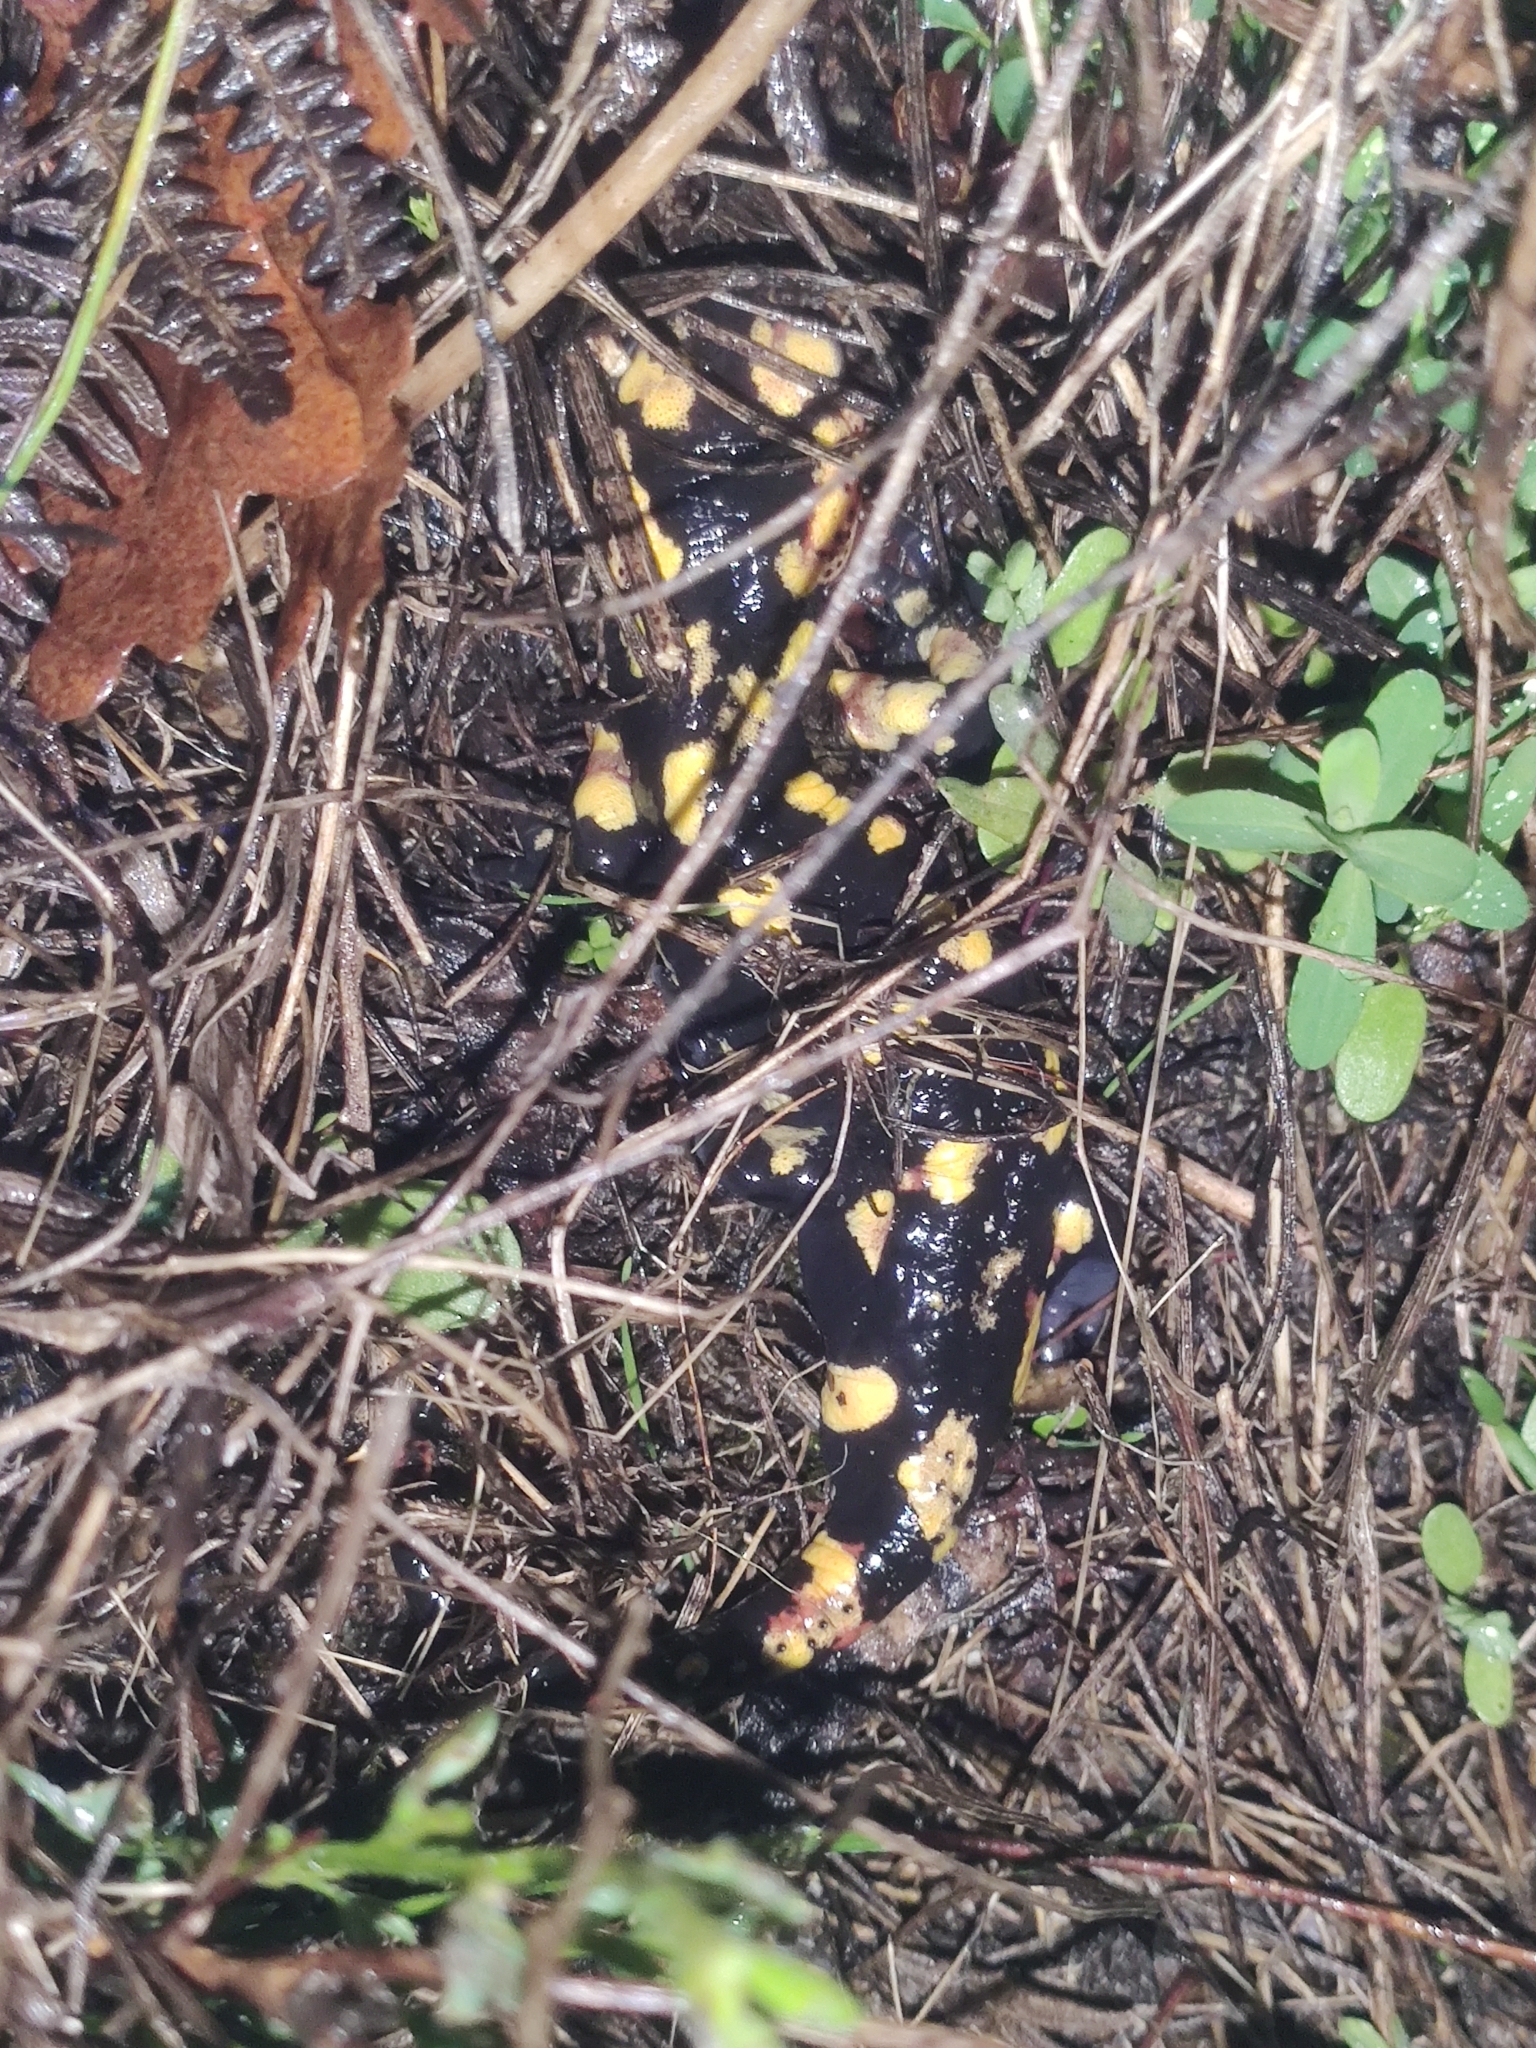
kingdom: Animalia
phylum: Chordata
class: Amphibia
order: Caudata
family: Salamandridae
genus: Salamandra
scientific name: Salamandra salamandra
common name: Fire salamander
